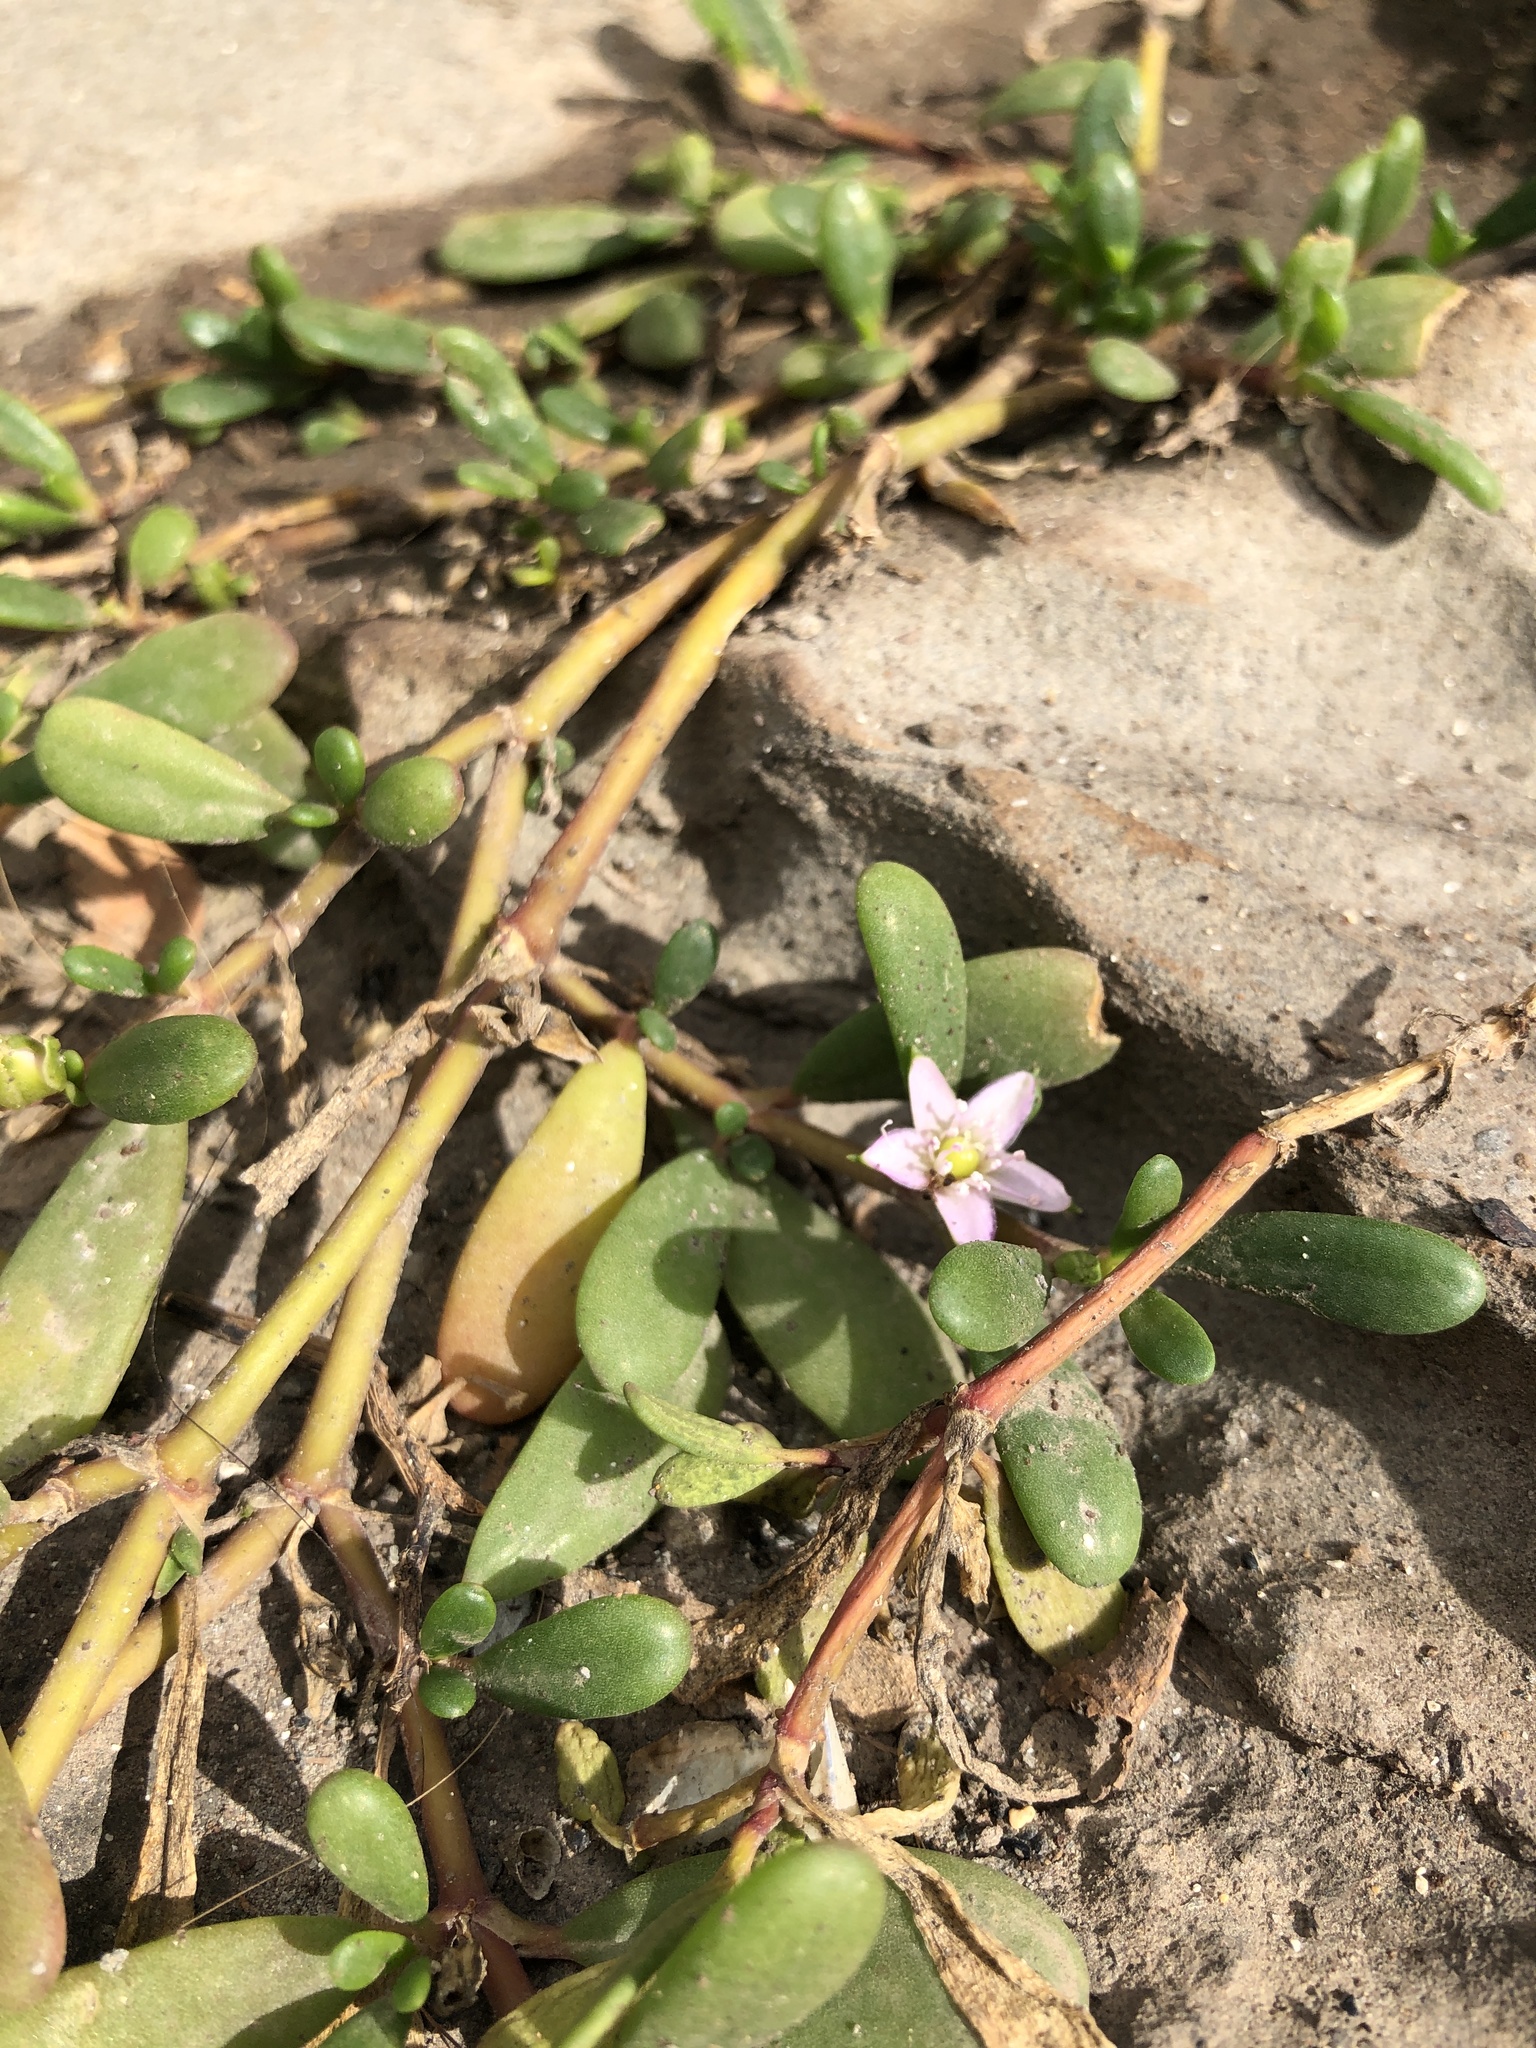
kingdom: Plantae
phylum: Tracheophyta
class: Magnoliopsida
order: Caryophyllales
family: Aizoaceae
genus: Sesuvium
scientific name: Sesuvium portulacastrum
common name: Sea-purslane
